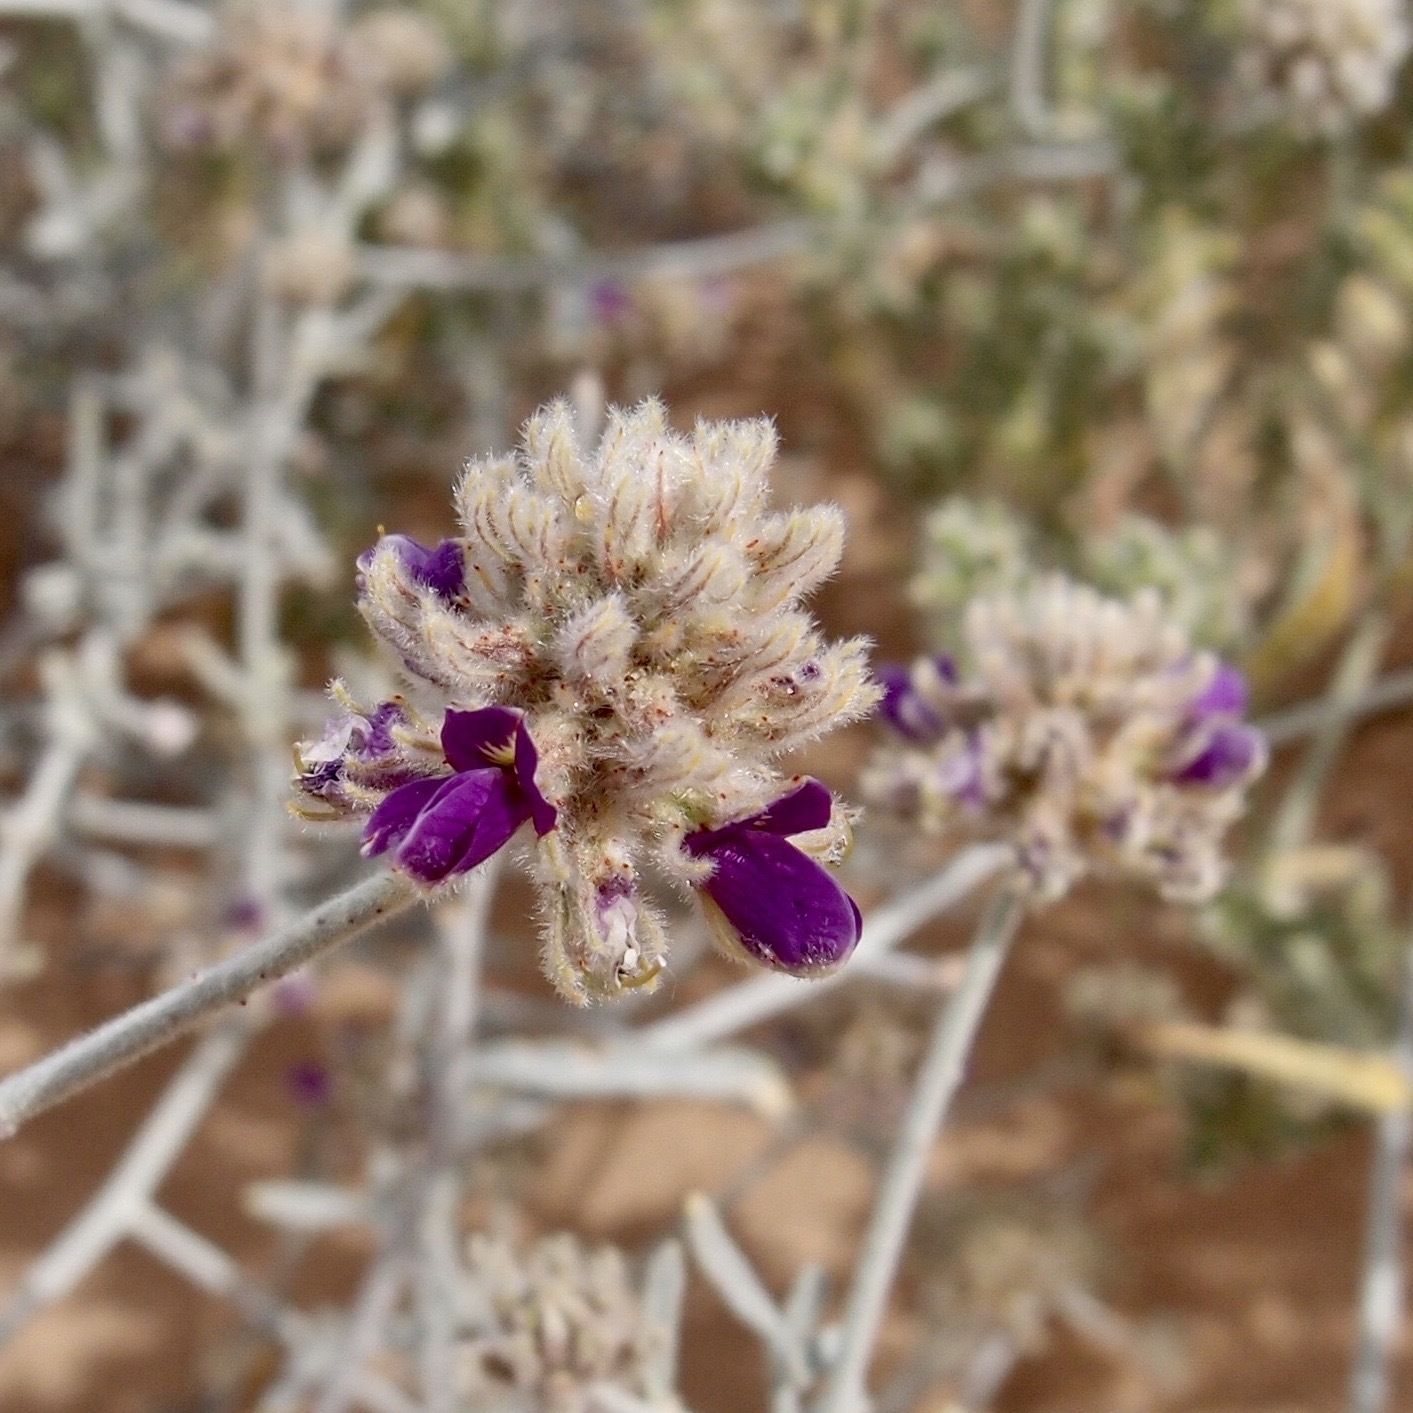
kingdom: Plantae
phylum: Tracheophyta
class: Magnoliopsida
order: Fabales
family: Fabaceae
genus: Psorothamnus
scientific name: Psorothamnus emoryi
